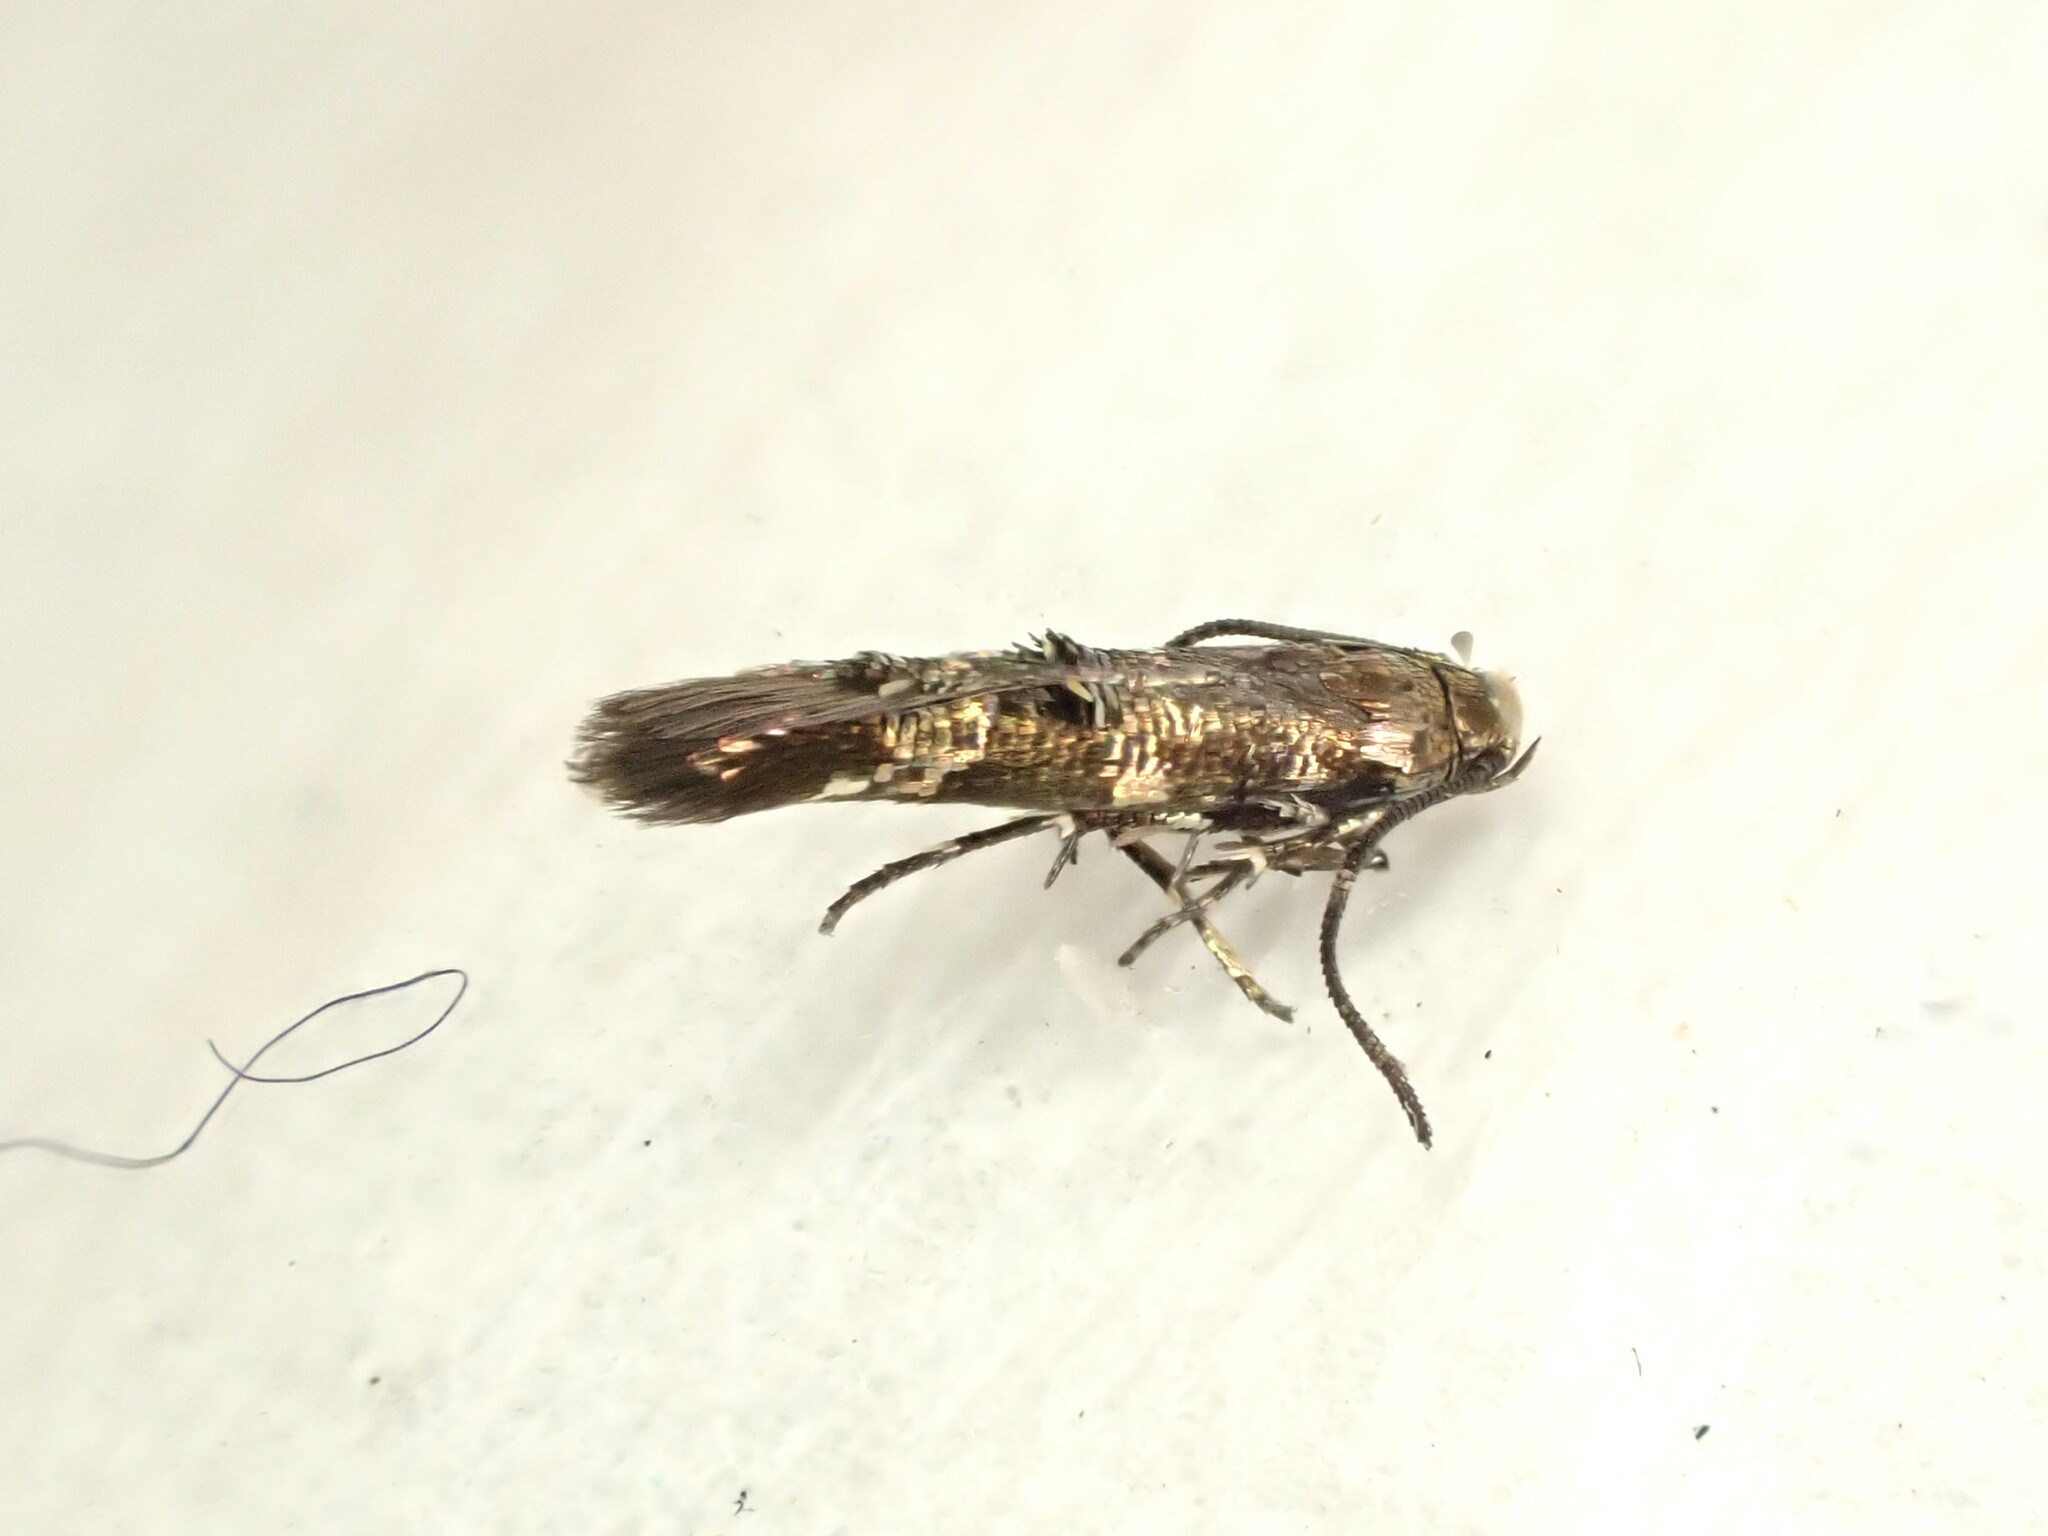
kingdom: Animalia
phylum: Arthropoda
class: Insecta
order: Lepidoptera
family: Momphidae
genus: Zapyrastra
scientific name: Zapyrastra calliphana
